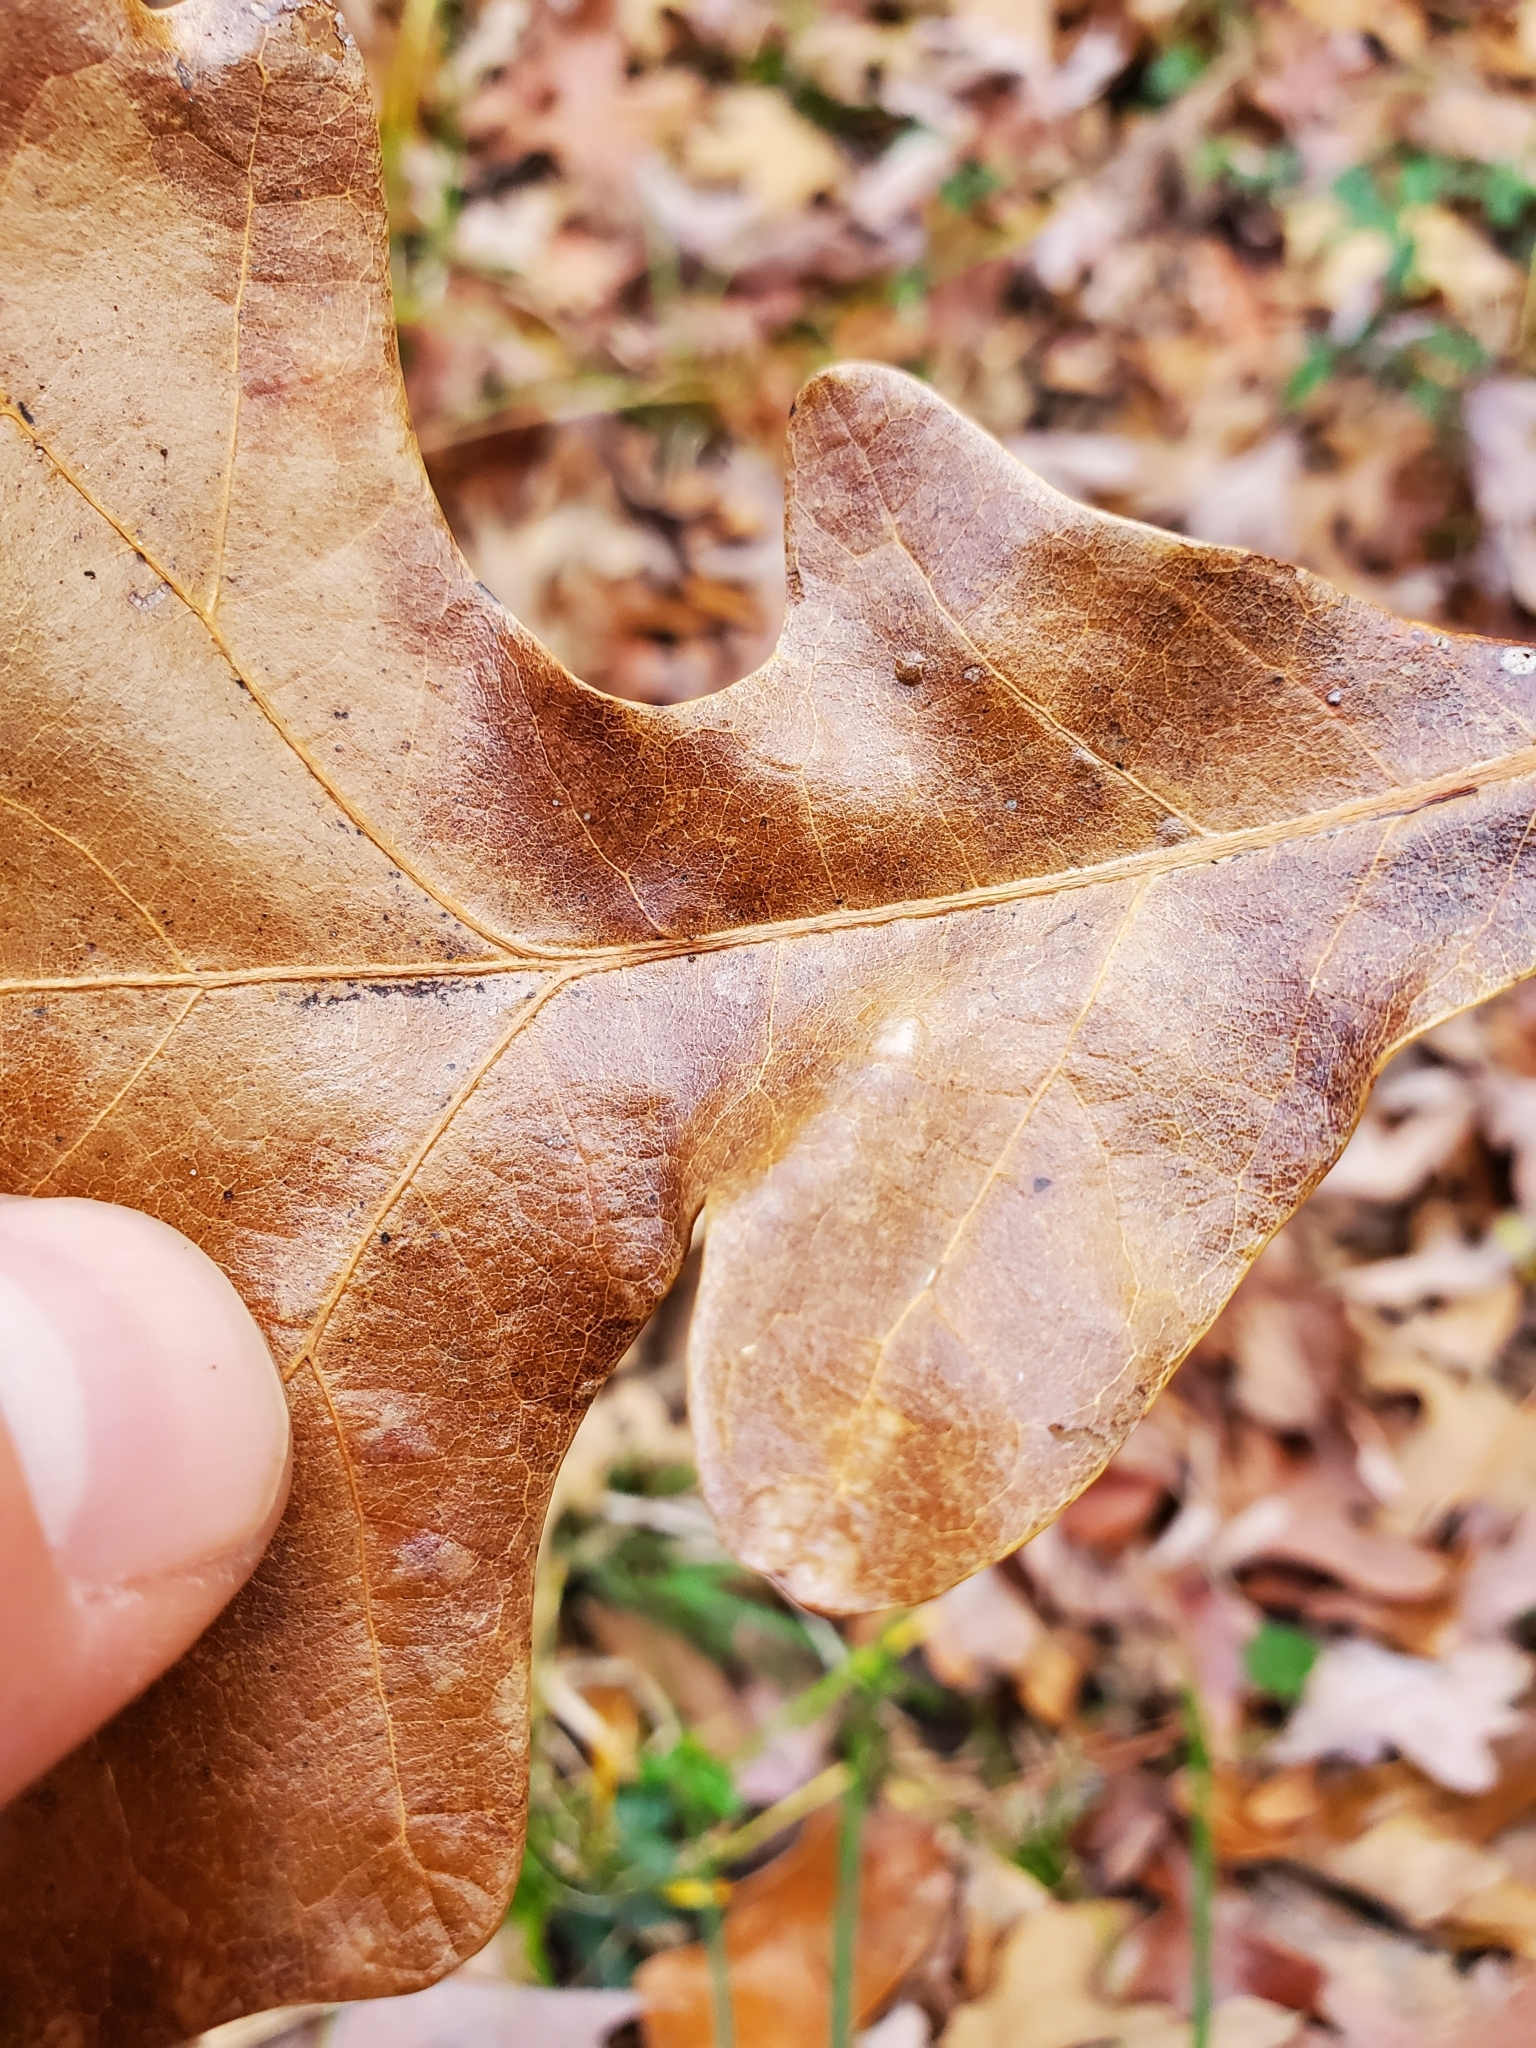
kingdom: Animalia
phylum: Arthropoda
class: Insecta
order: Hymenoptera
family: Cynipidae
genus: Andricus
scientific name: Andricus Druon ignotum
